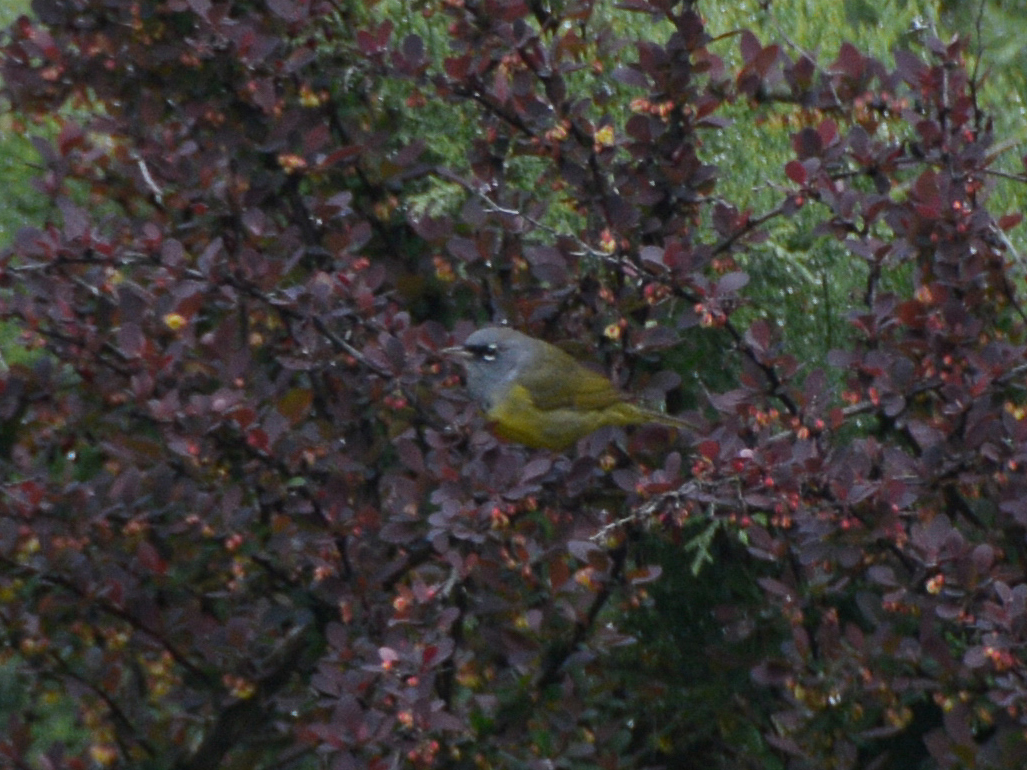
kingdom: Animalia
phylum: Chordata
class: Aves
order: Passeriformes
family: Parulidae
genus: Geothlypis
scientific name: Geothlypis tolmiei
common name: Macgillivray's warbler
